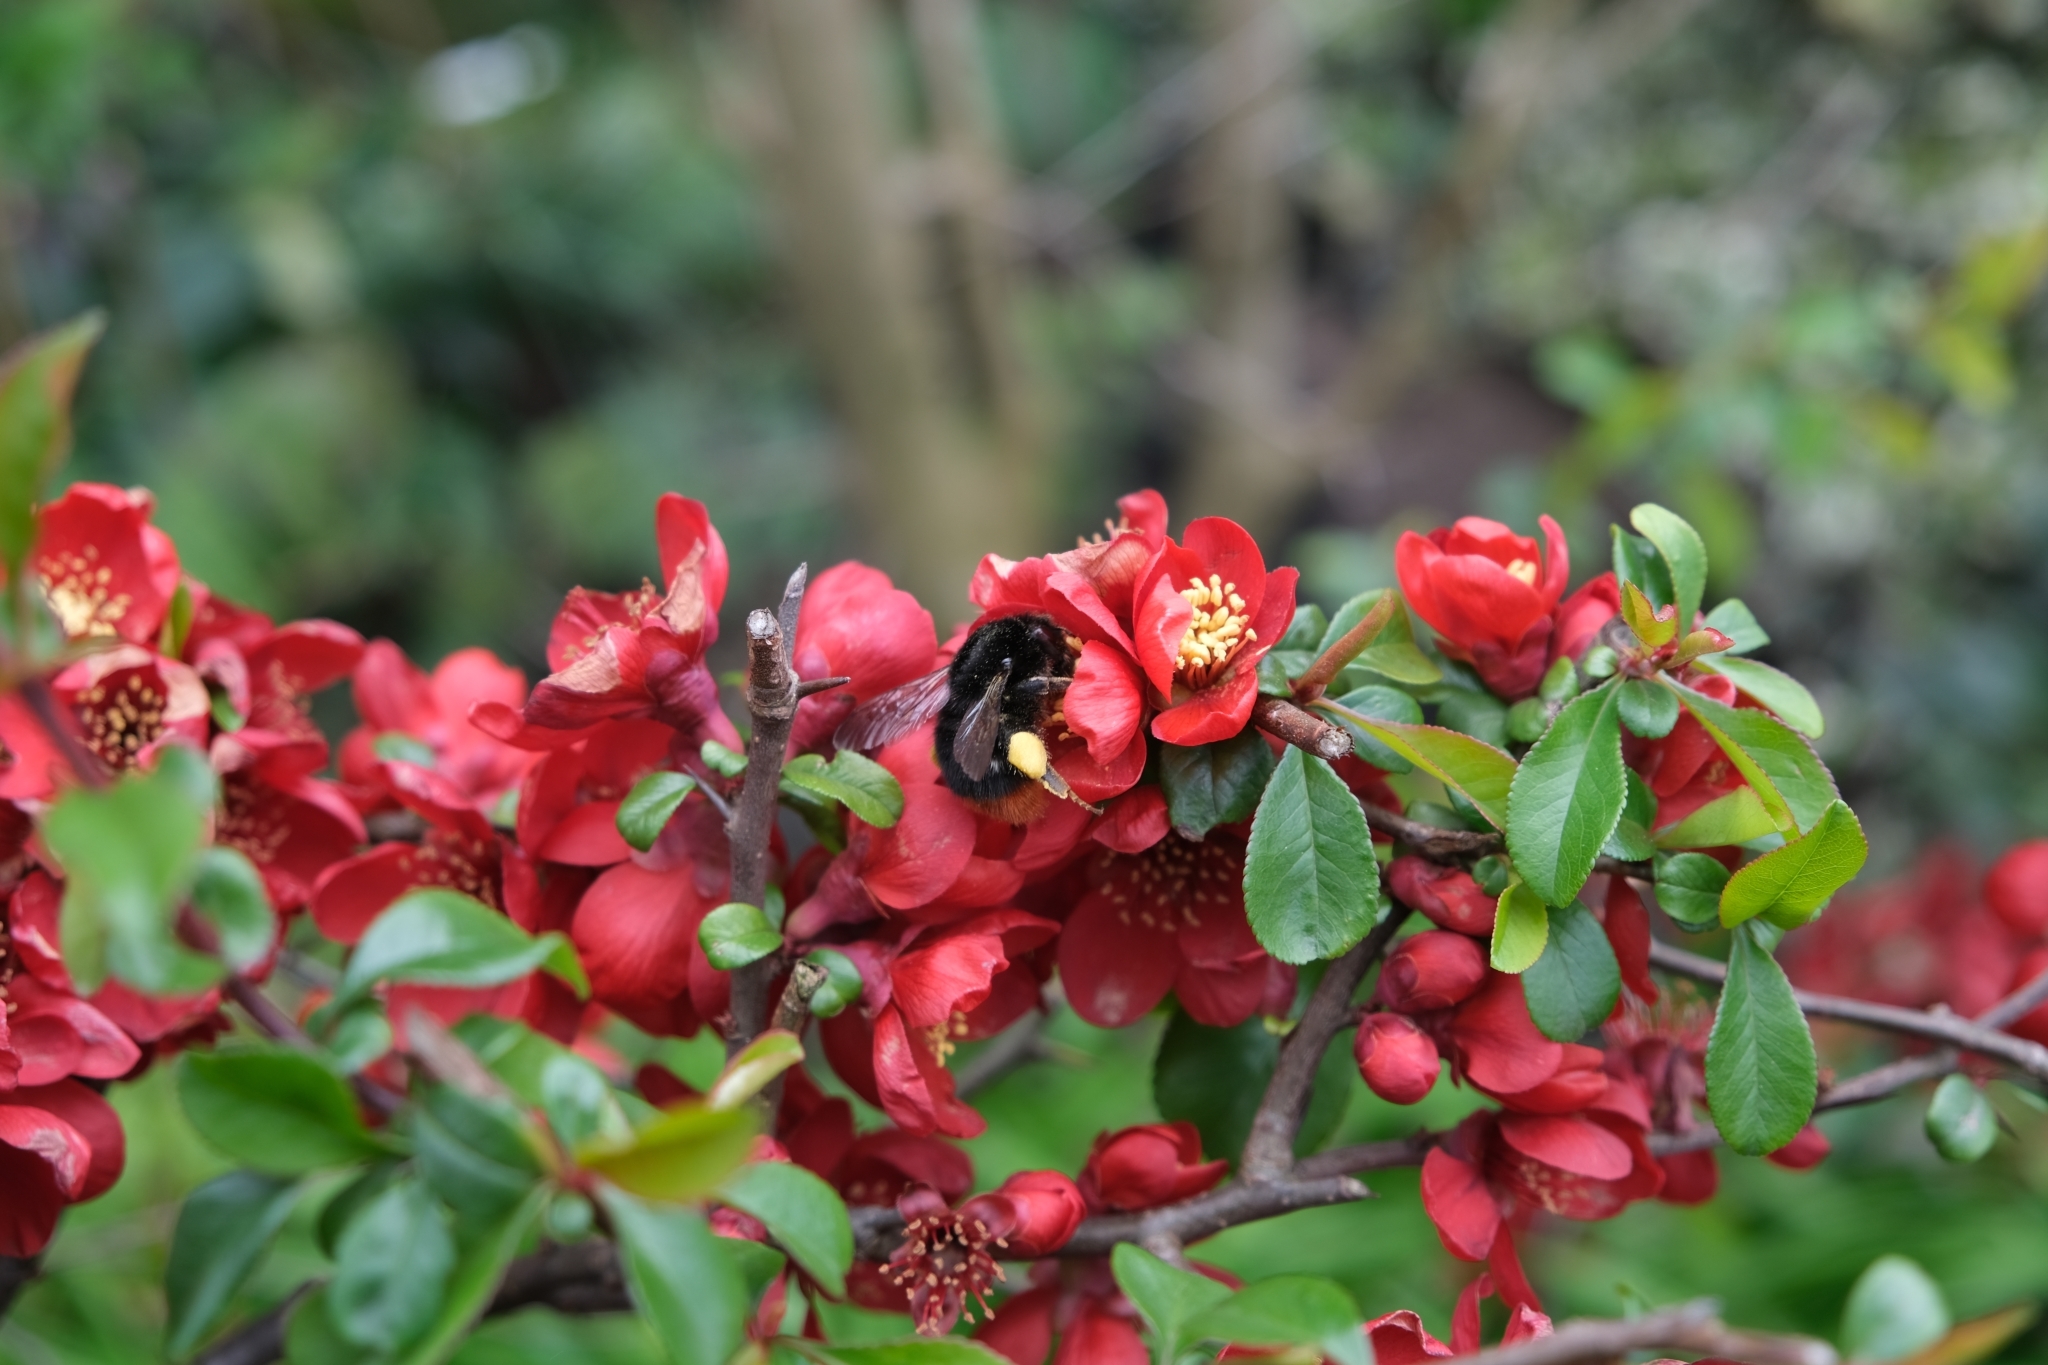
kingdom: Animalia
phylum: Arthropoda
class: Insecta
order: Hymenoptera
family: Apidae
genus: Bombus
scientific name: Bombus lapidarius
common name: Large red-tailed humble-bee
